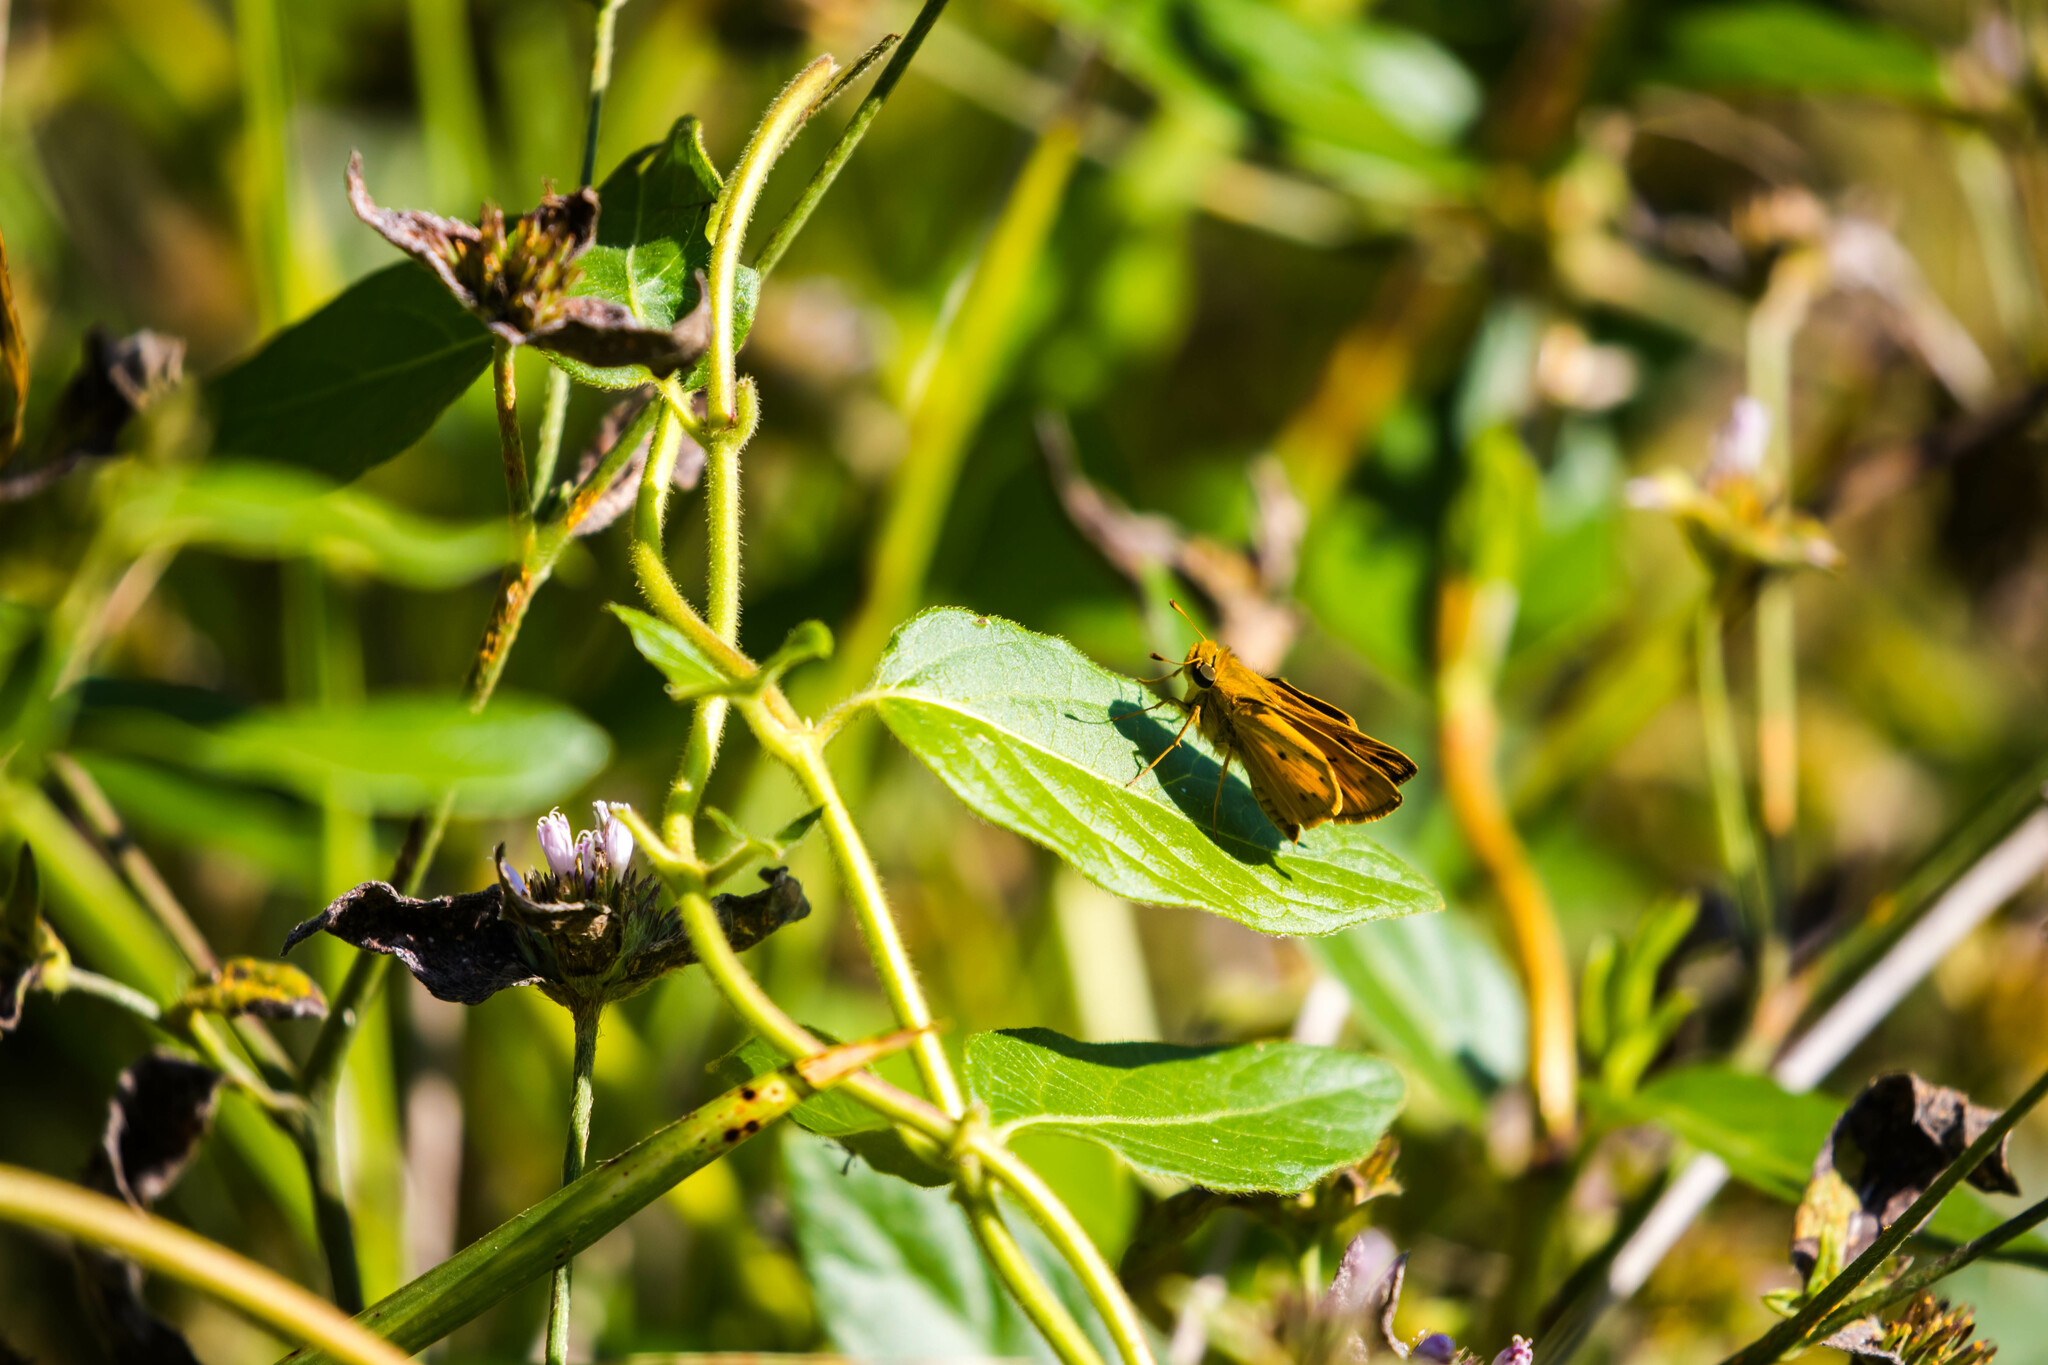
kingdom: Animalia
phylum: Arthropoda
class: Insecta
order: Lepidoptera
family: Hesperiidae
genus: Hylephila
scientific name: Hylephila phyleus
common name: Fiery skipper
